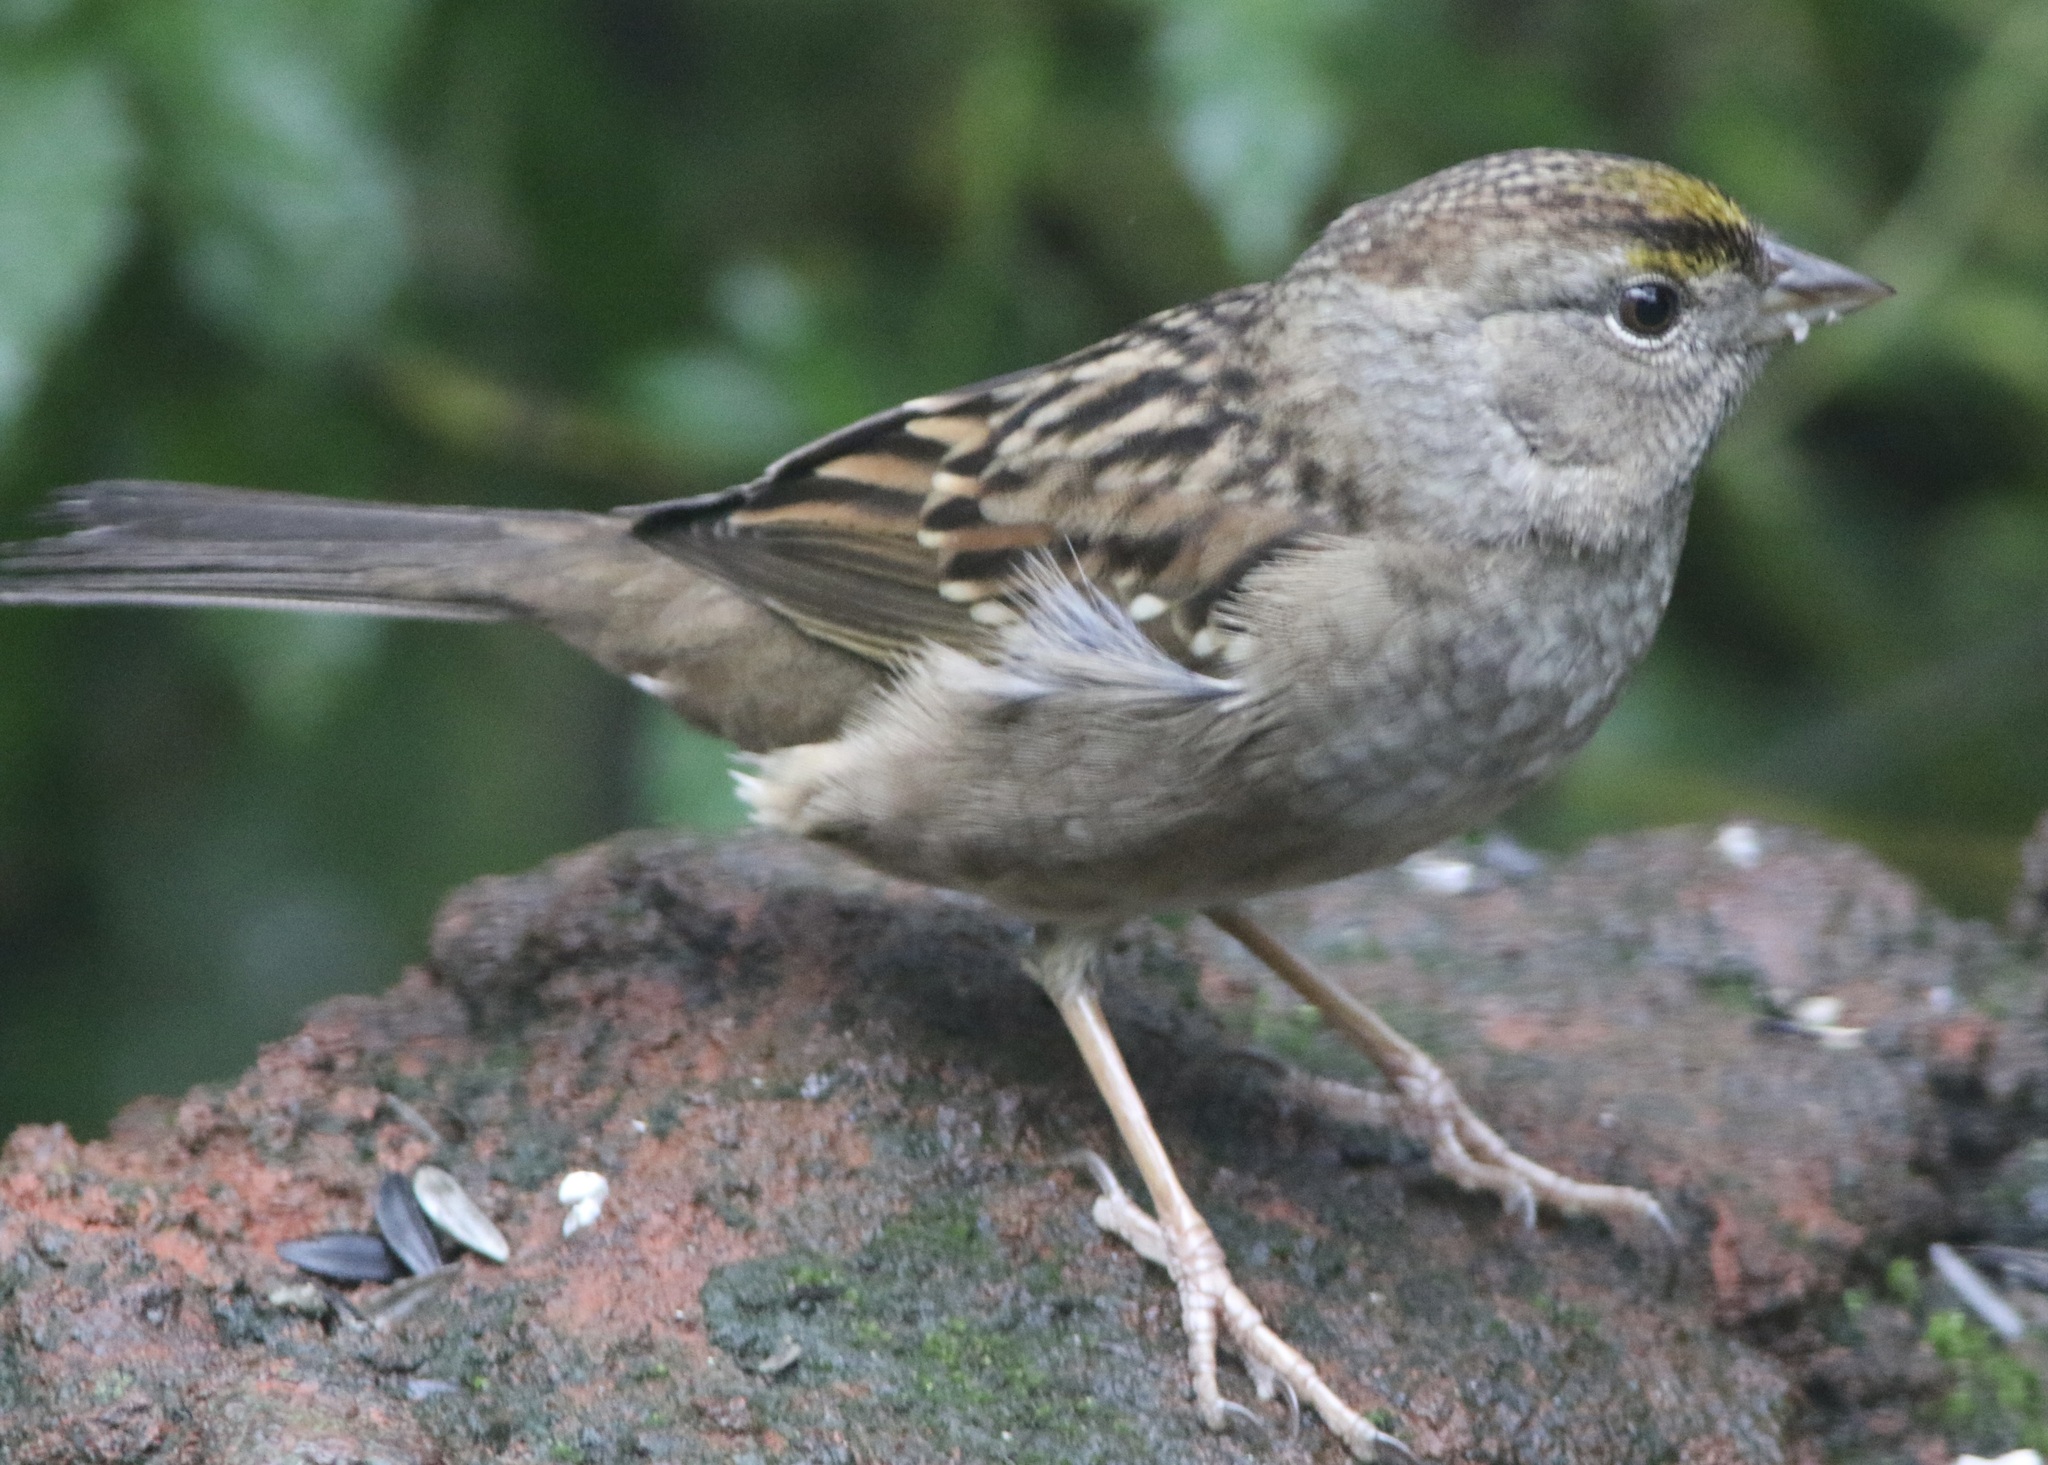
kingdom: Animalia
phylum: Chordata
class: Aves
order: Passeriformes
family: Passerellidae
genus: Zonotrichia
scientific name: Zonotrichia atricapilla
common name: Golden-crowned sparrow
